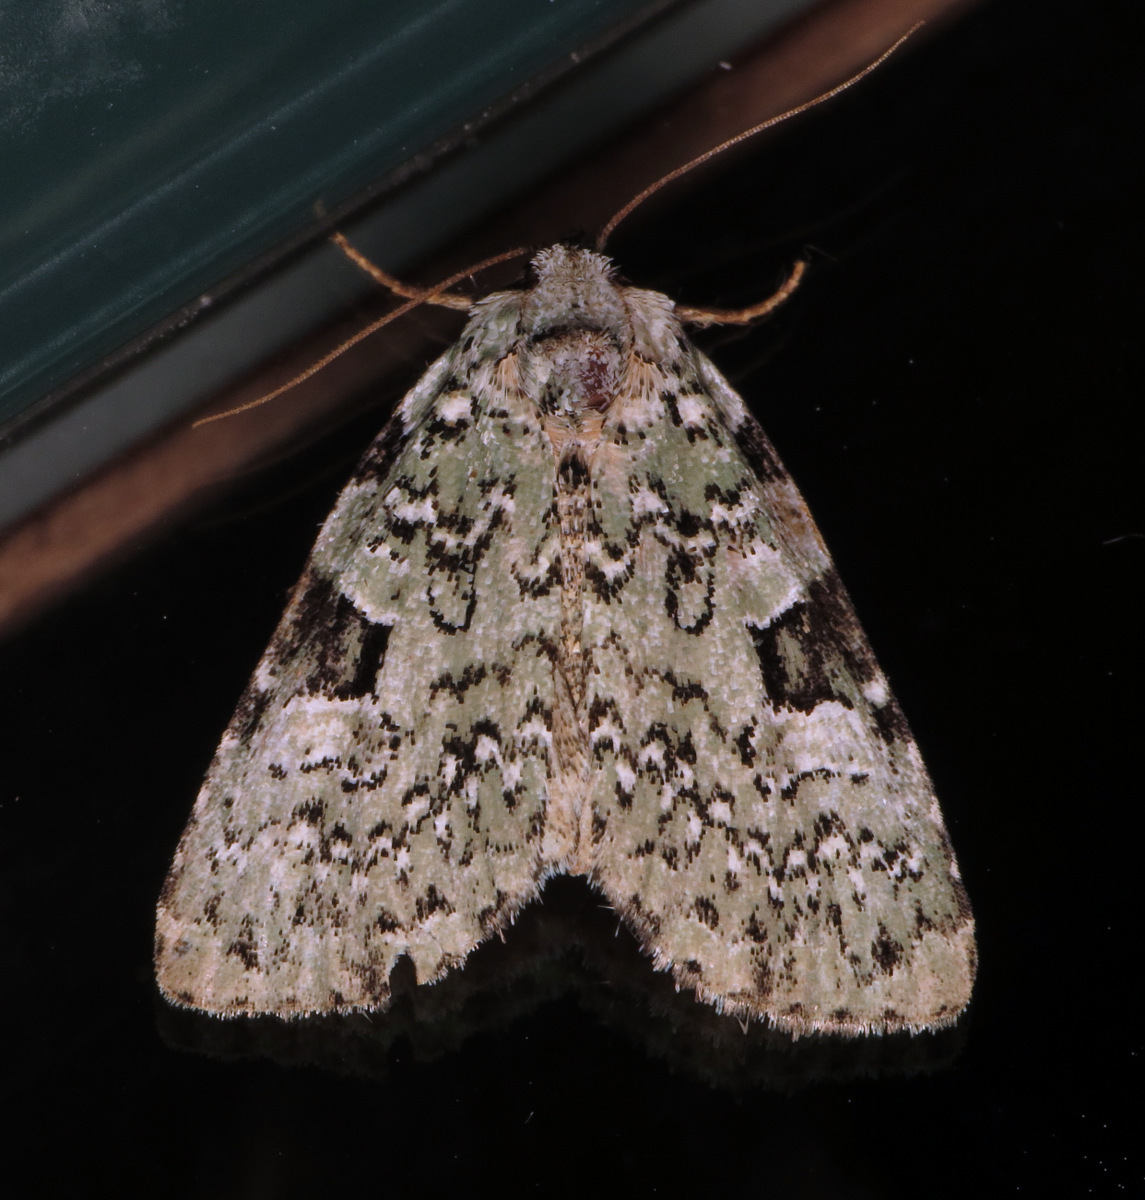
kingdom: Animalia
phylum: Arthropoda
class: Insecta
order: Lepidoptera
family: Noctuidae
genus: Leuconycta
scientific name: Leuconycta diphteroides
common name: Green leuconycta moth
